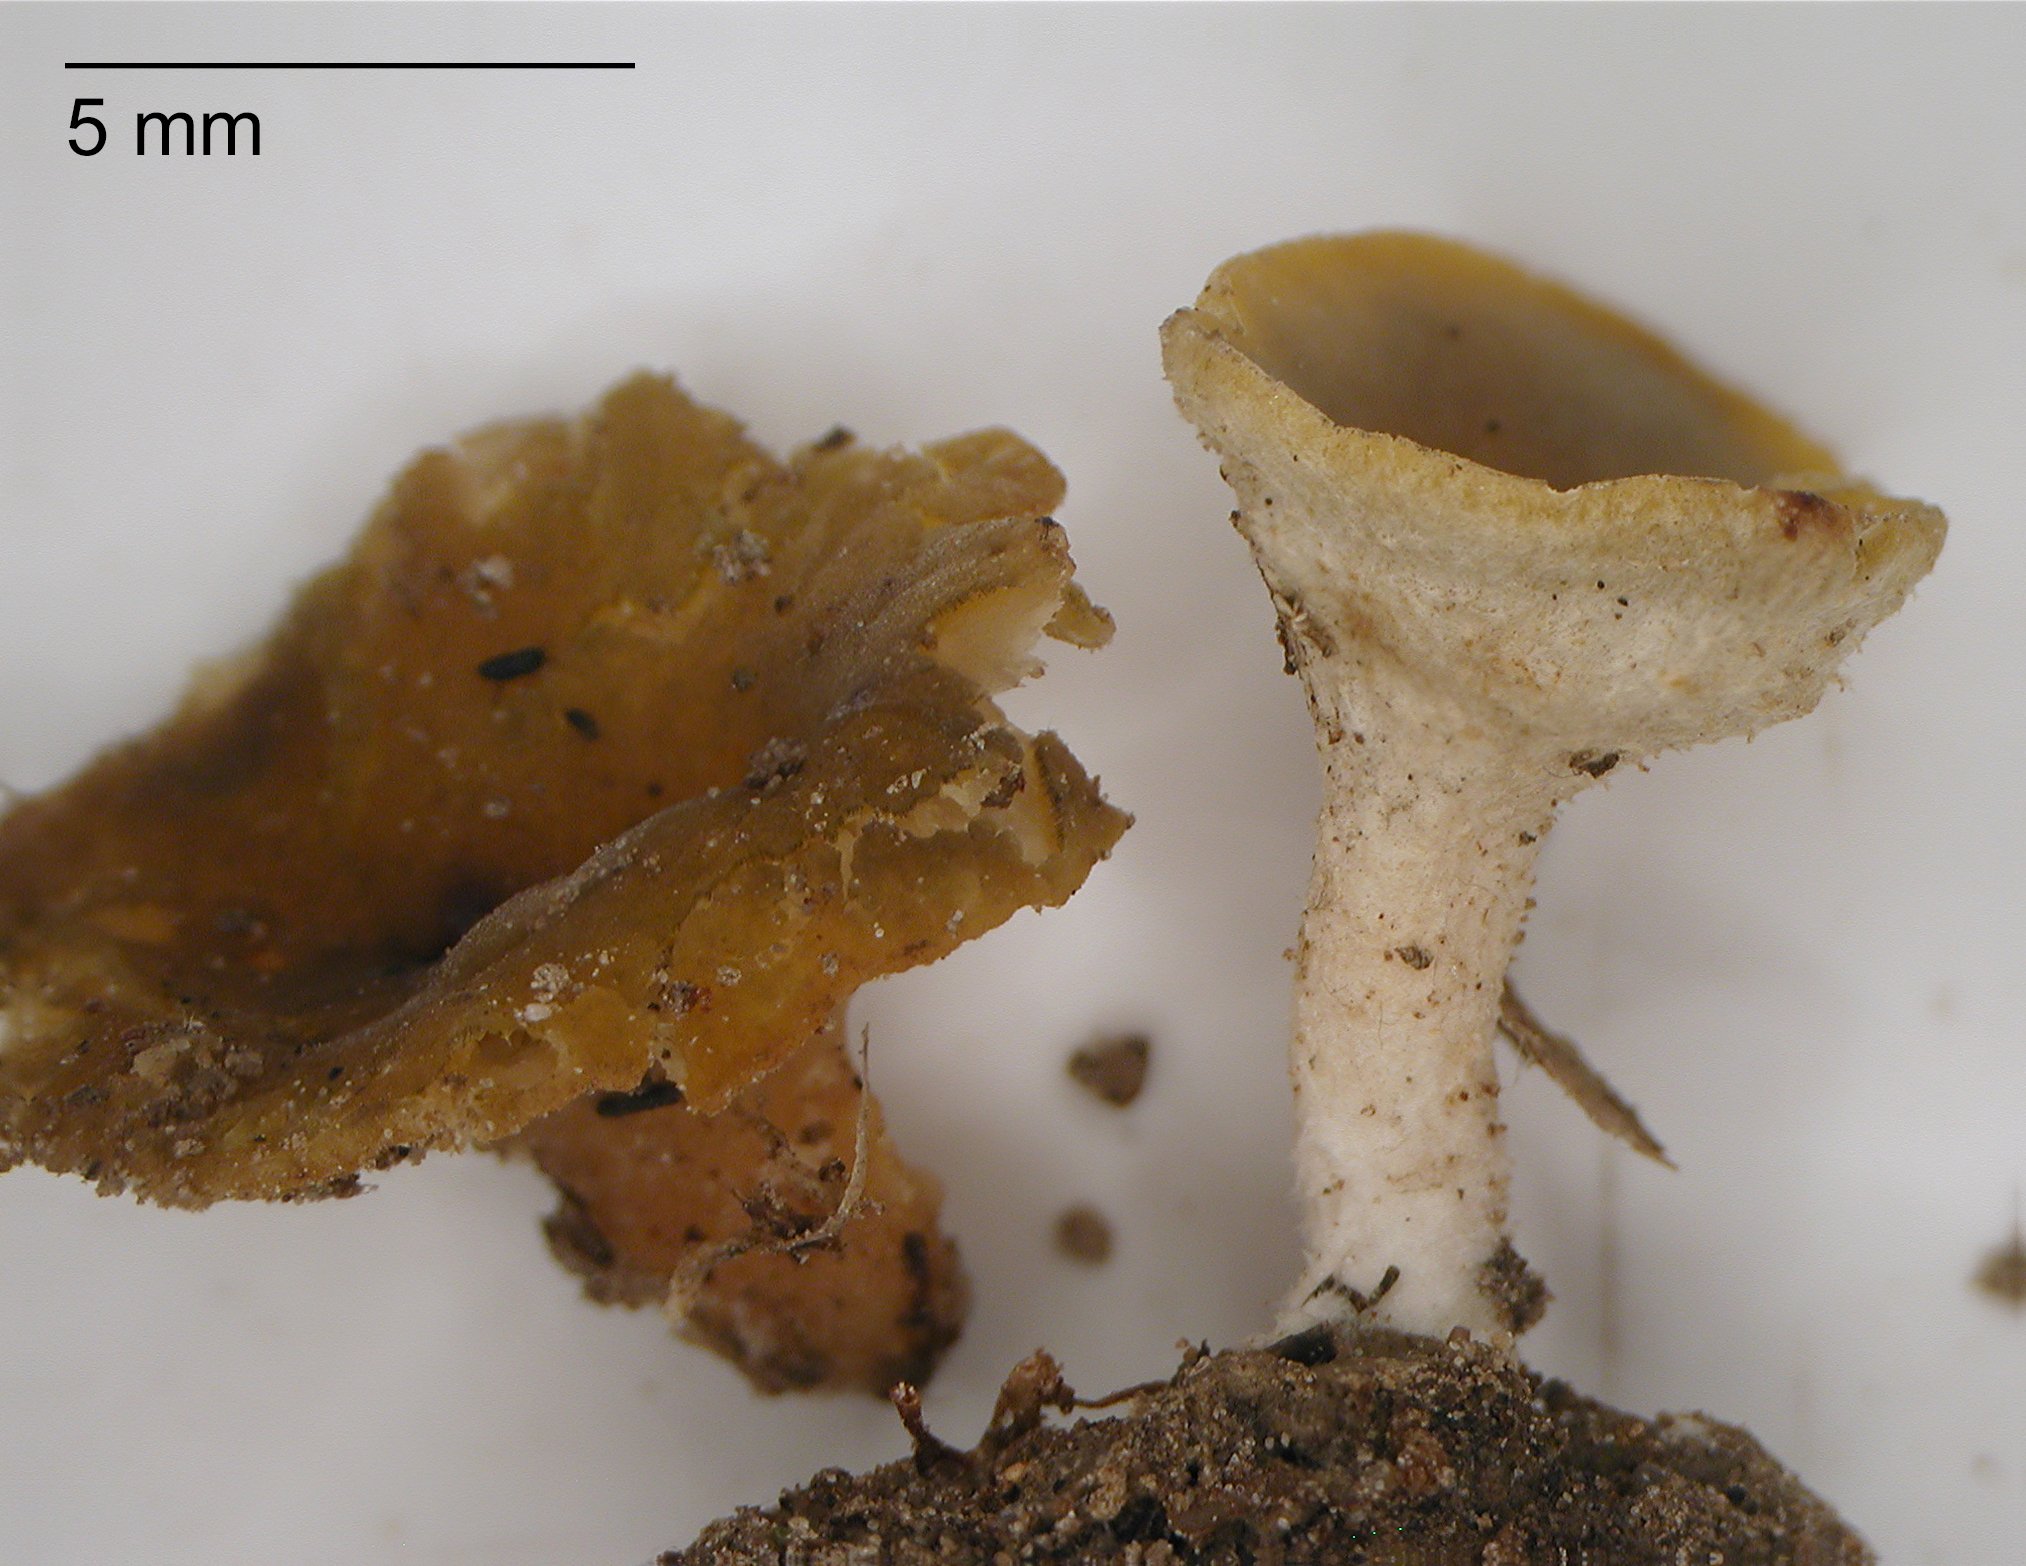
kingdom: Fungi
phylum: Ascomycota
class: Leotiomycetes
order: Helotiales
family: Helotiaceae
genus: Phaeohelotium
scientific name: Phaeohelotium undulatum
